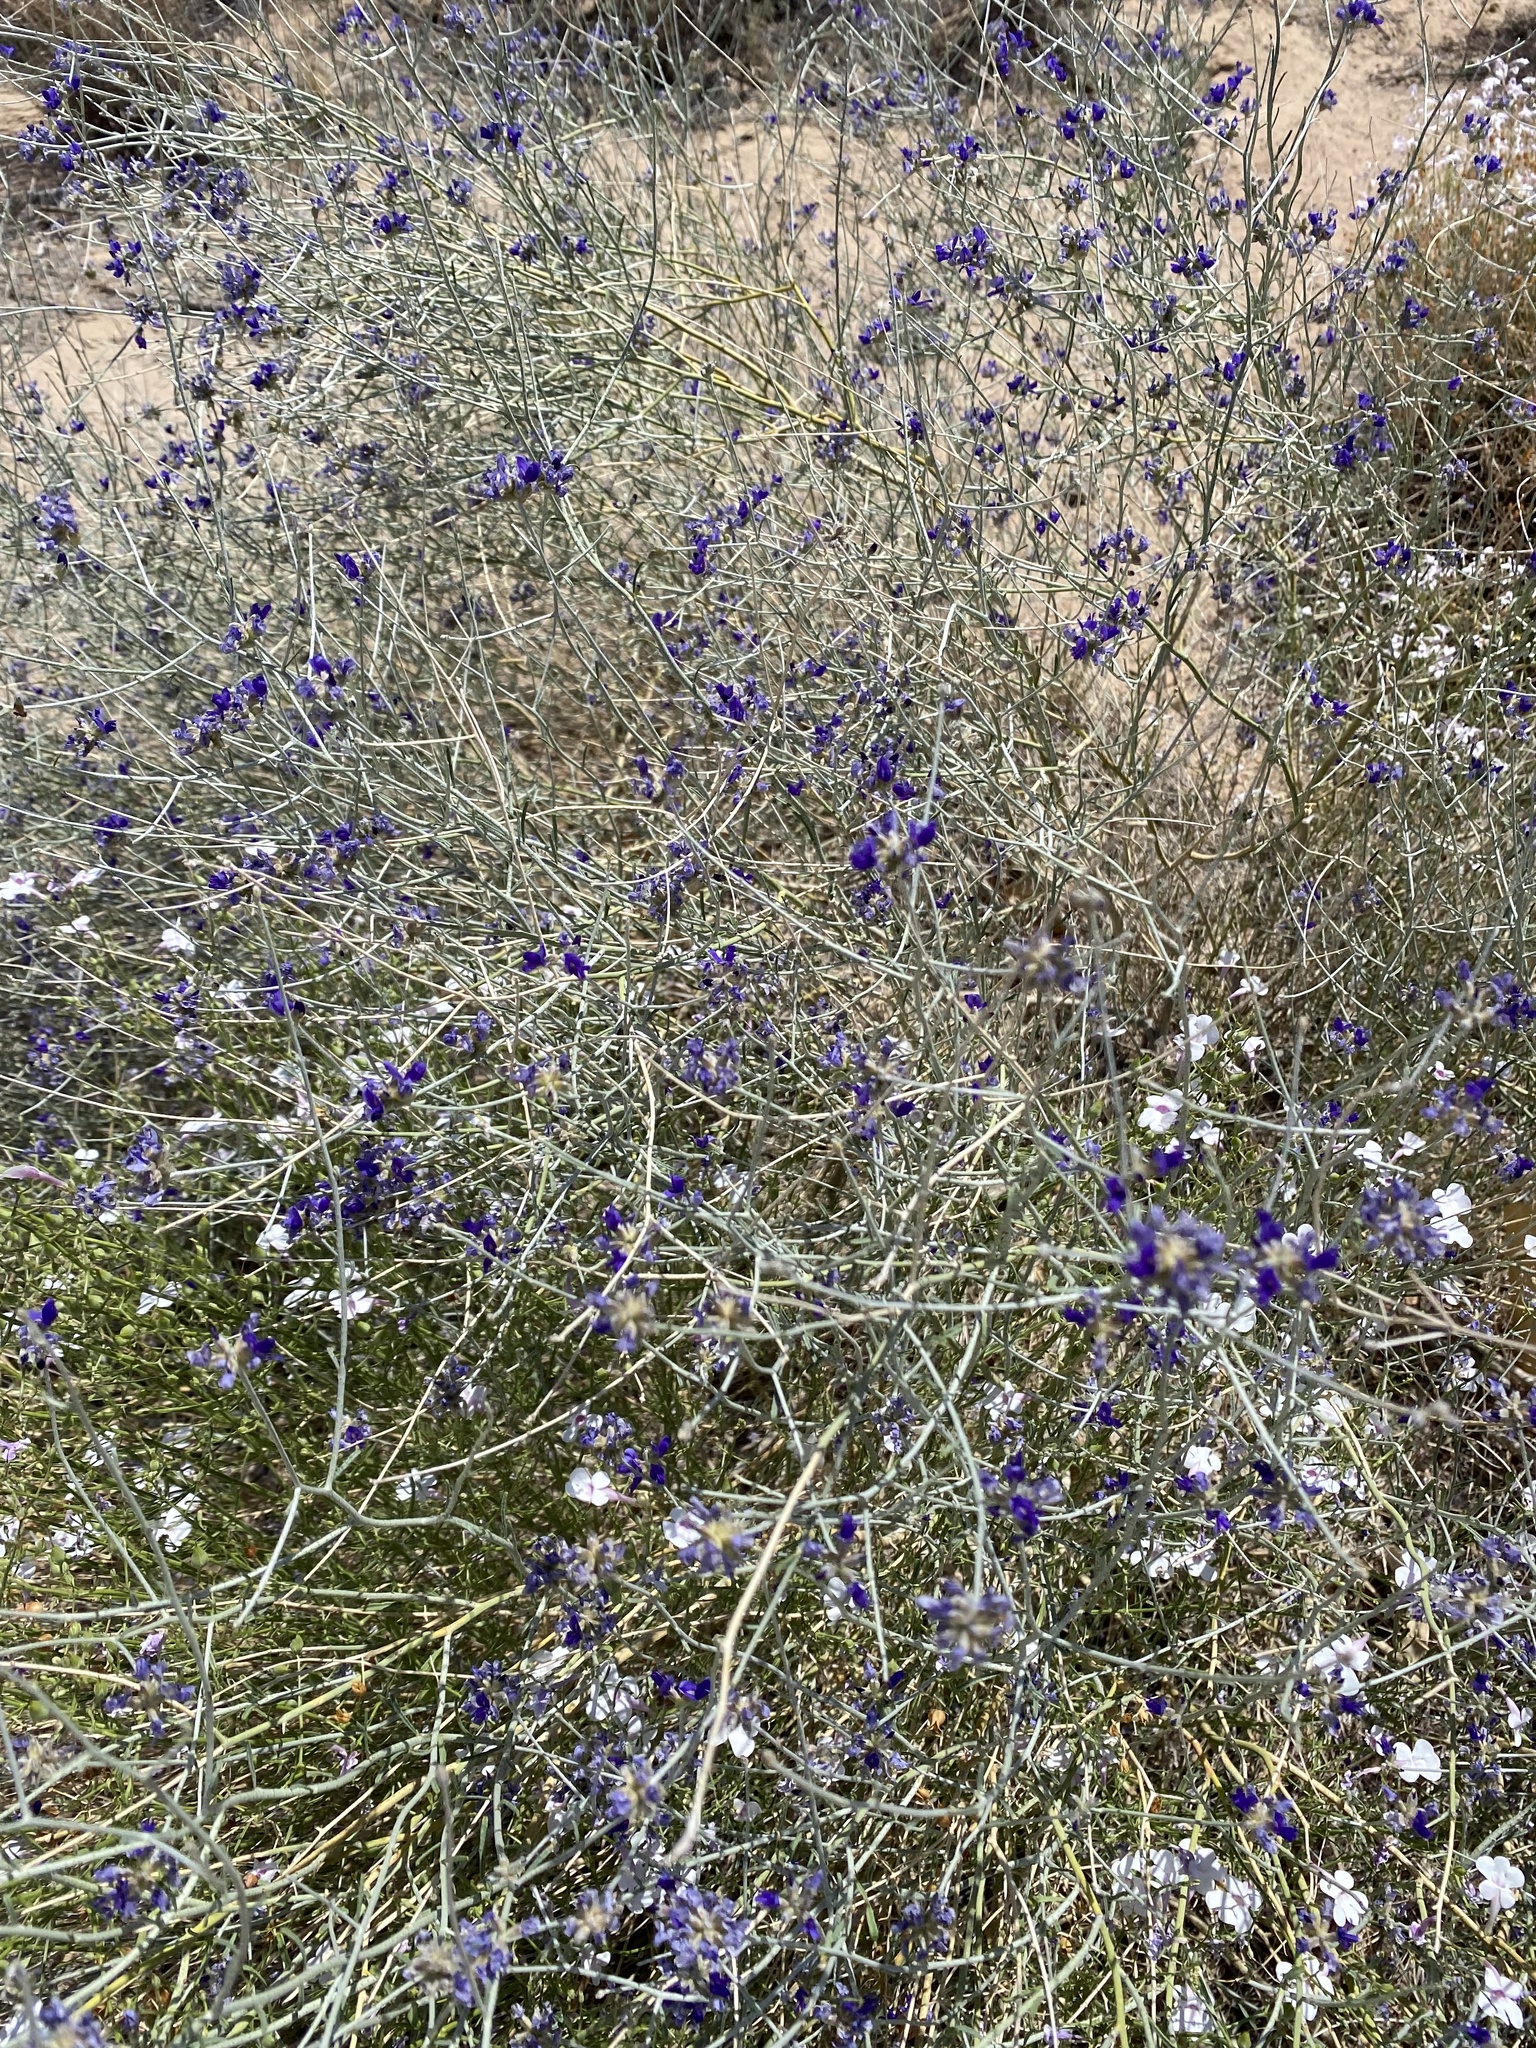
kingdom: Plantae
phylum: Tracheophyta
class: Magnoliopsida
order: Fabales
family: Fabaceae
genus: Psorothamnus
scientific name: Psorothamnus scoparius
